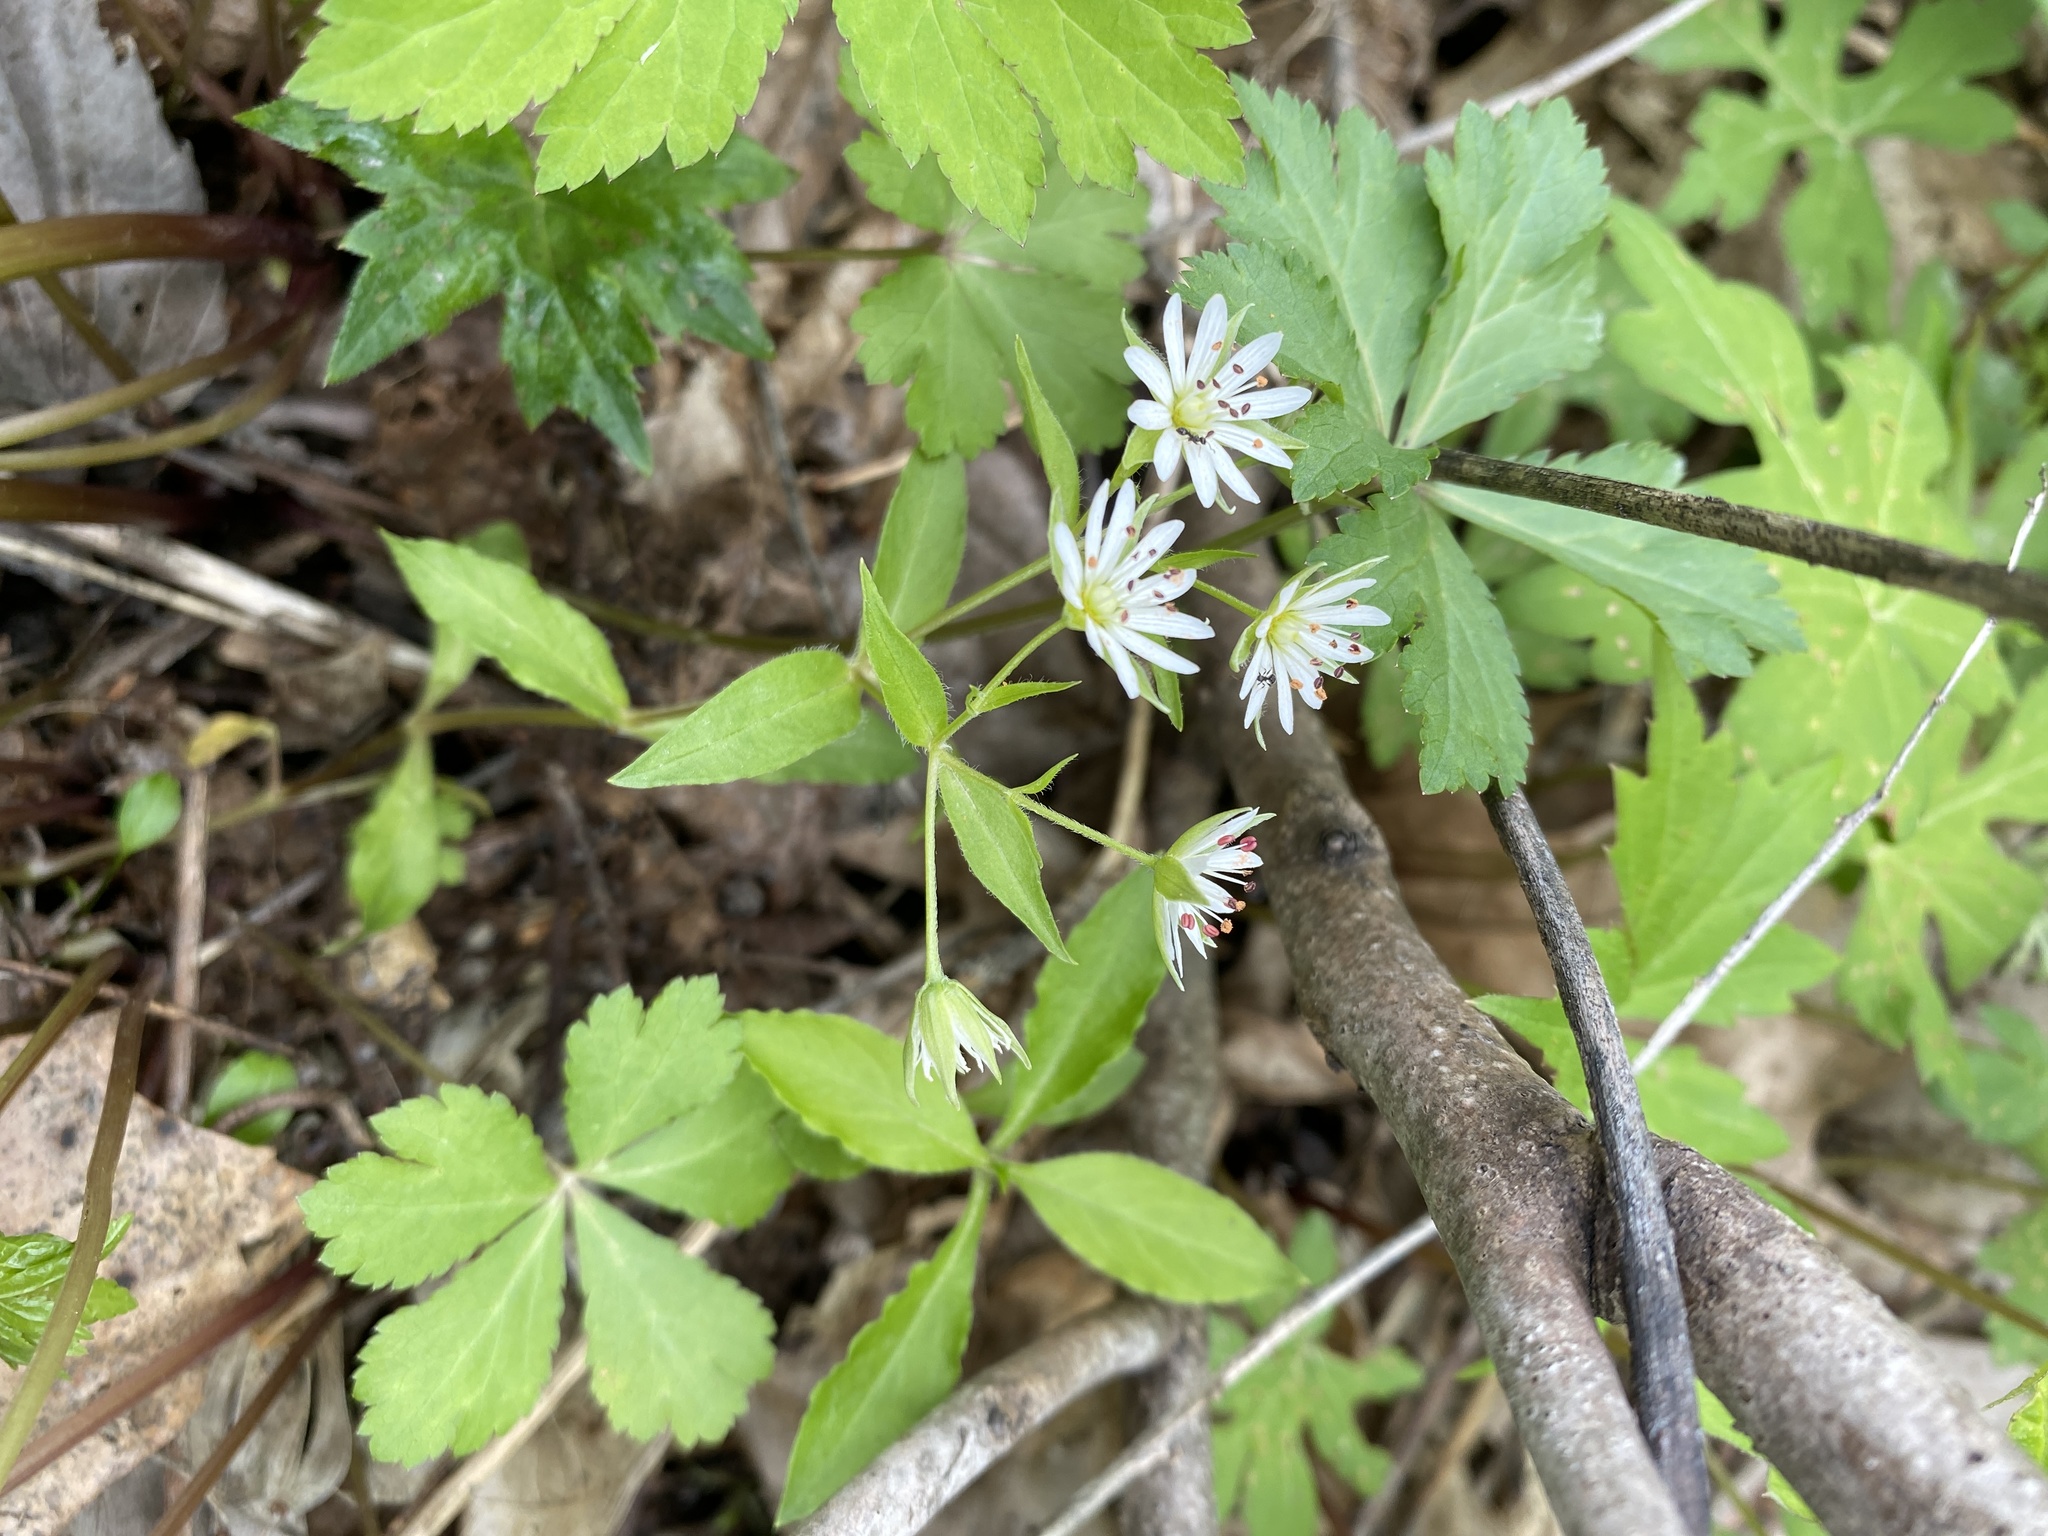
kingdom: Plantae
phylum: Tracheophyta
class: Magnoliopsida
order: Caryophyllales
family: Caryophyllaceae
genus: Stellaria
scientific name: Stellaria pubera
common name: Star chickweed
